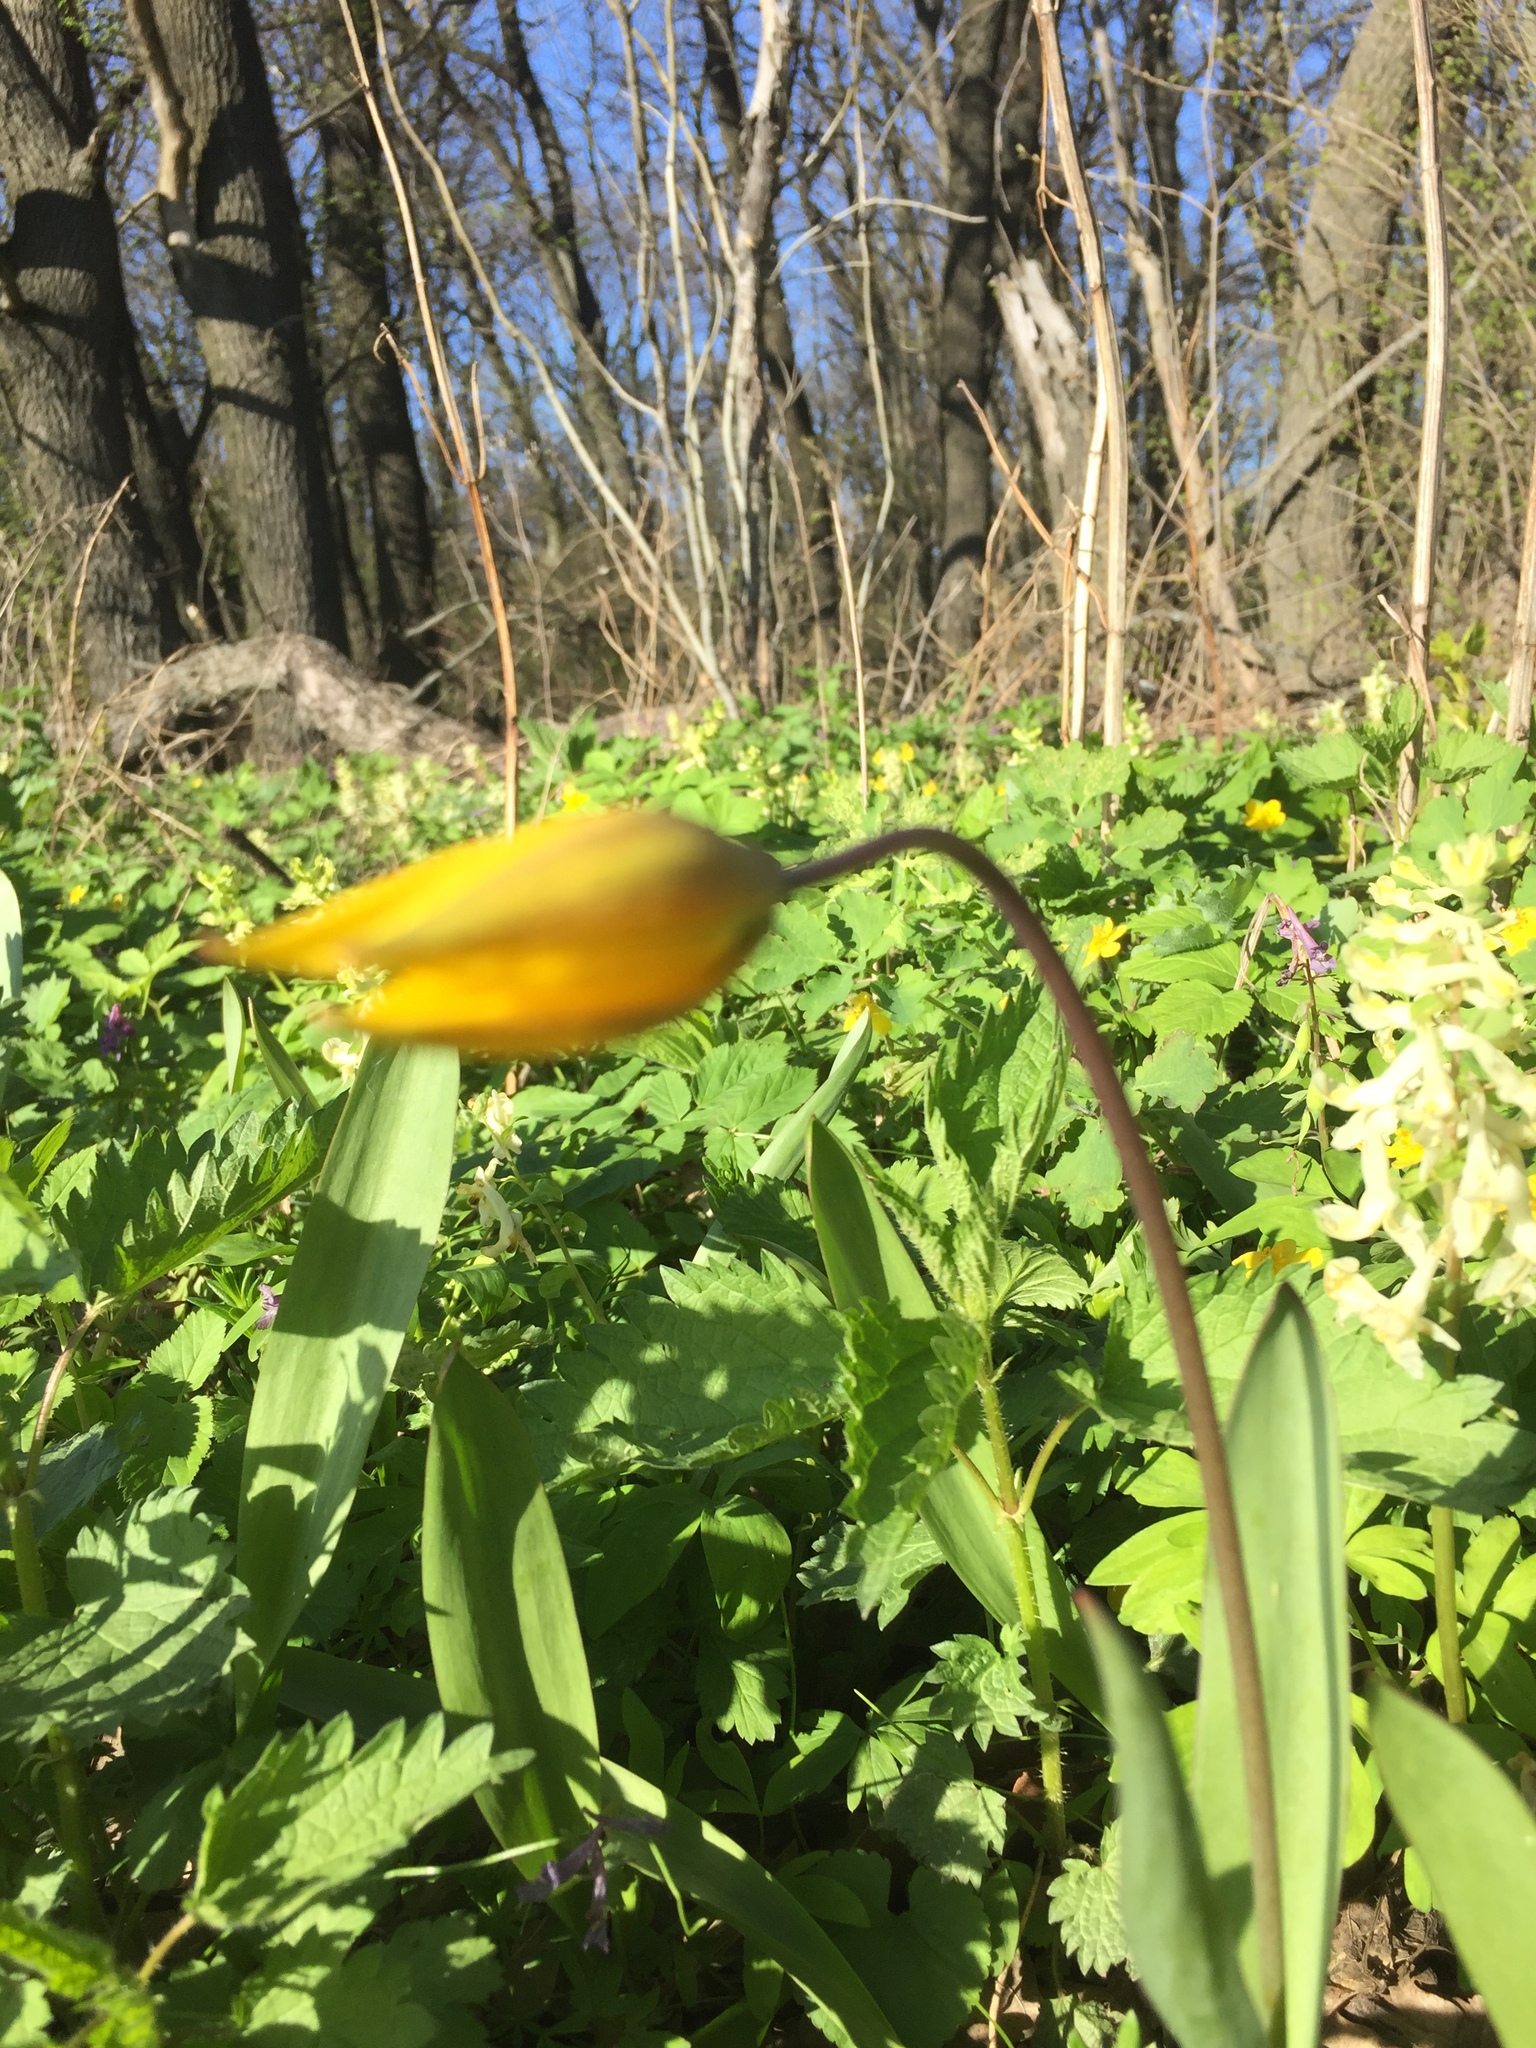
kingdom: Plantae
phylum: Tracheophyta
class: Liliopsida
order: Liliales
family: Liliaceae
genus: Tulipa
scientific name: Tulipa sylvestris
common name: Wild tulip
